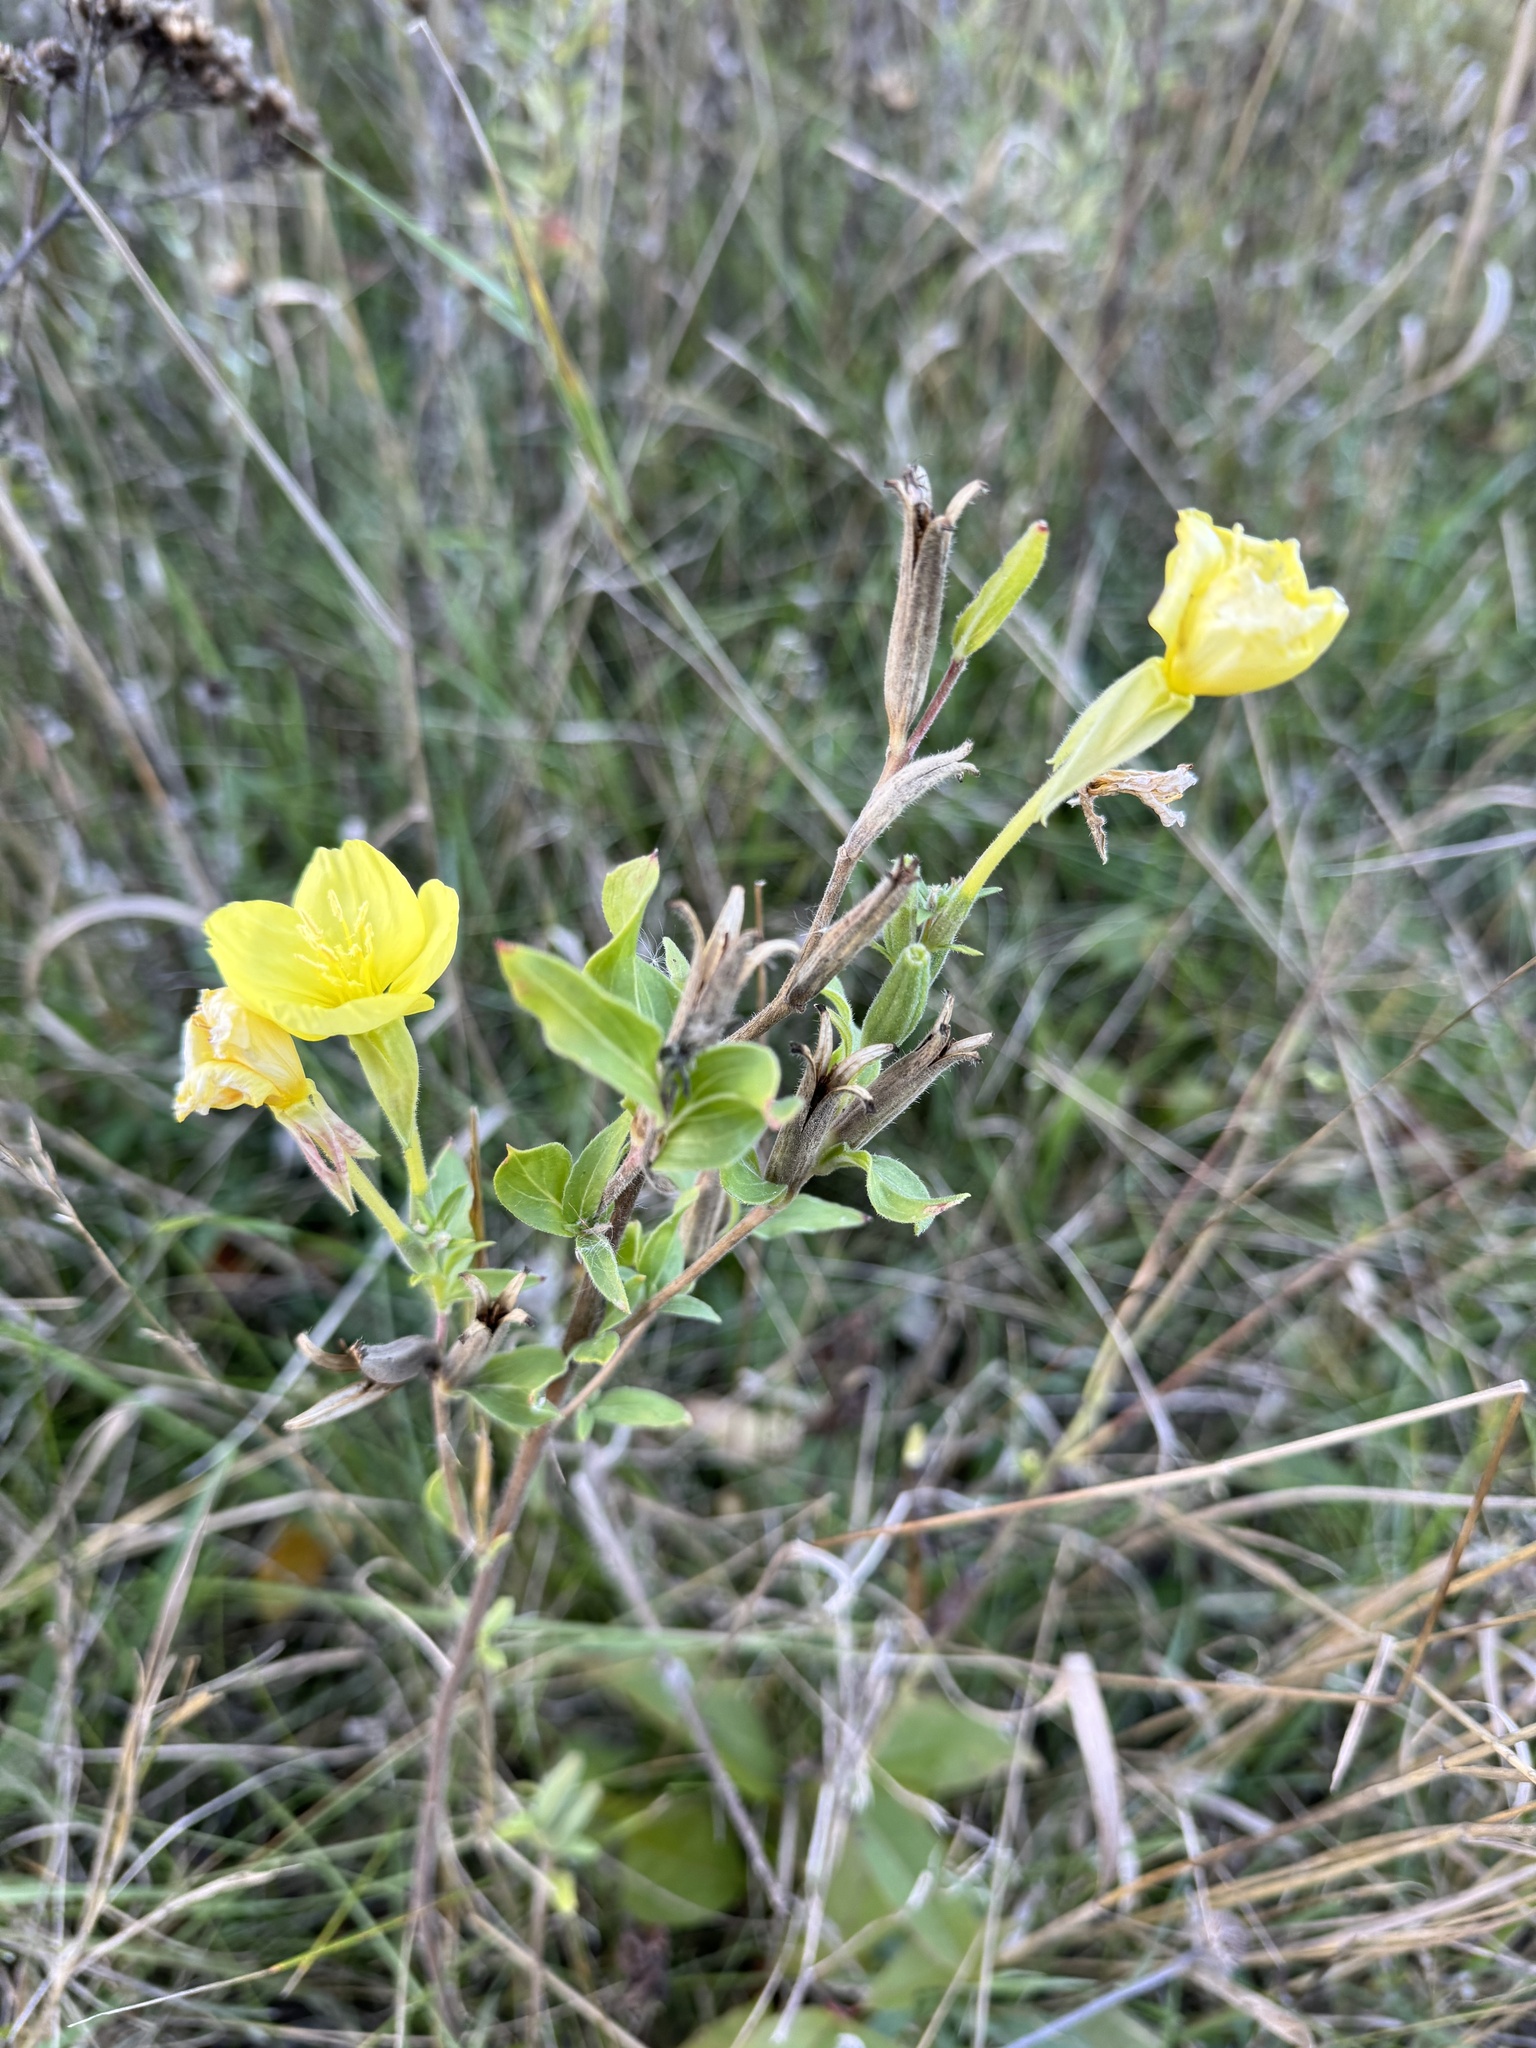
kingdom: Plantae
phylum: Tracheophyta
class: Magnoliopsida
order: Myrtales
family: Onagraceae
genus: Oenothera
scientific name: Oenothera biennis
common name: Common evening-primrose
